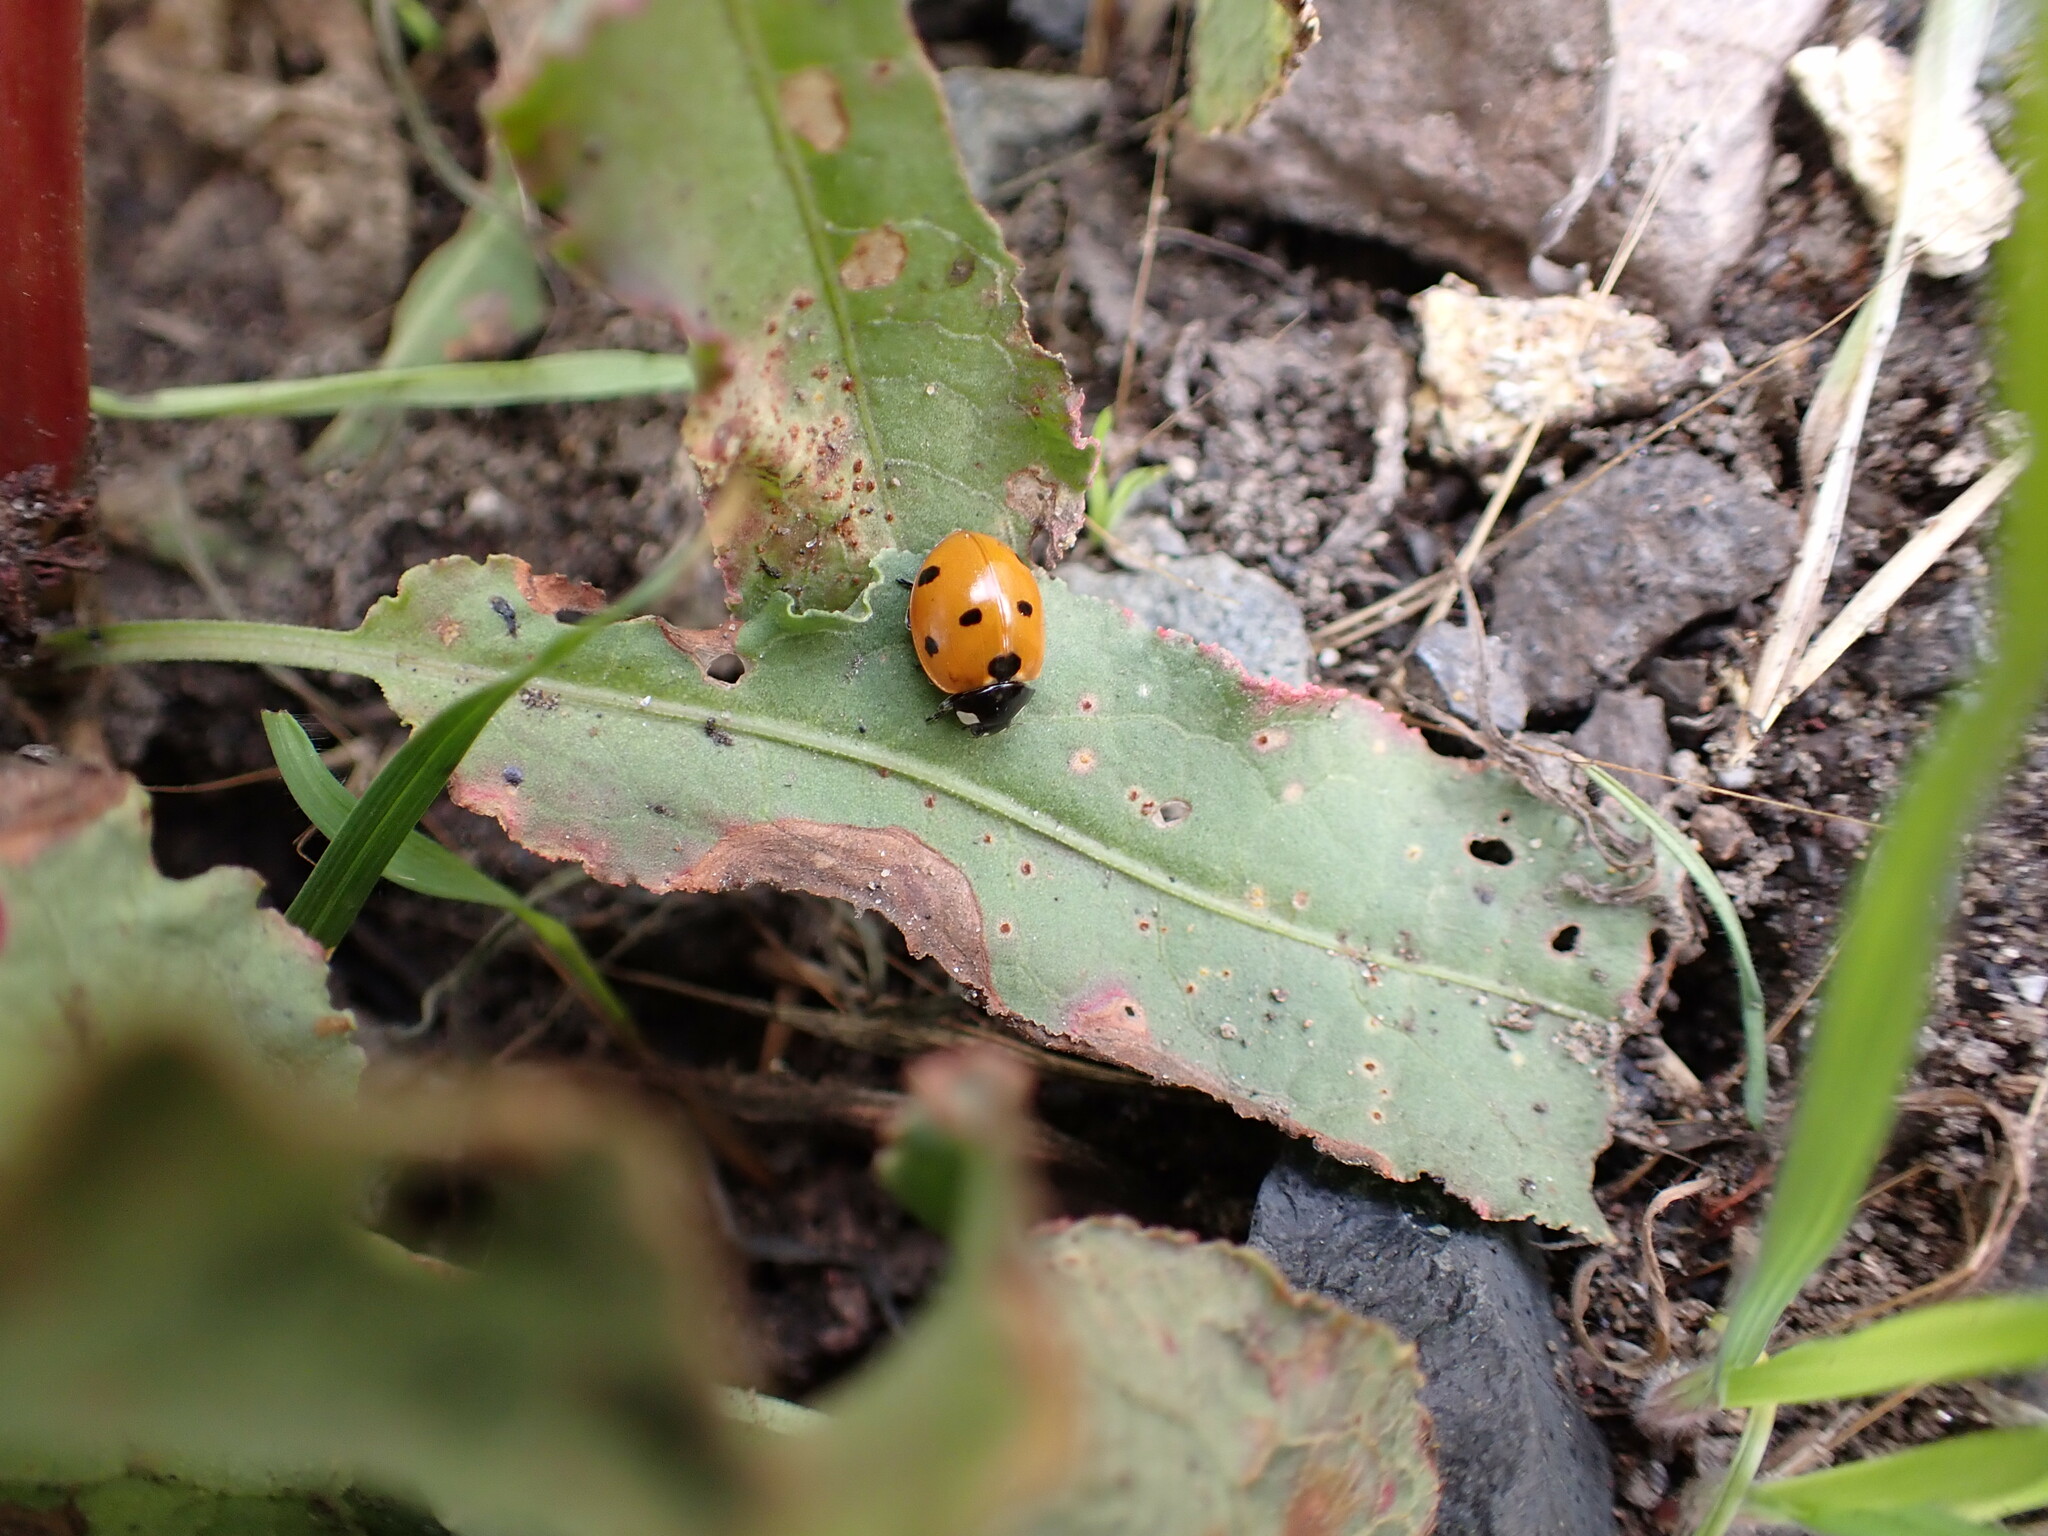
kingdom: Animalia
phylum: Arthropoda
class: Insecta
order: Coleoptera
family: Coccinellidae
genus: Coccinella
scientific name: Coccinella septempunctata
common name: Sevenspotted lady beetle
